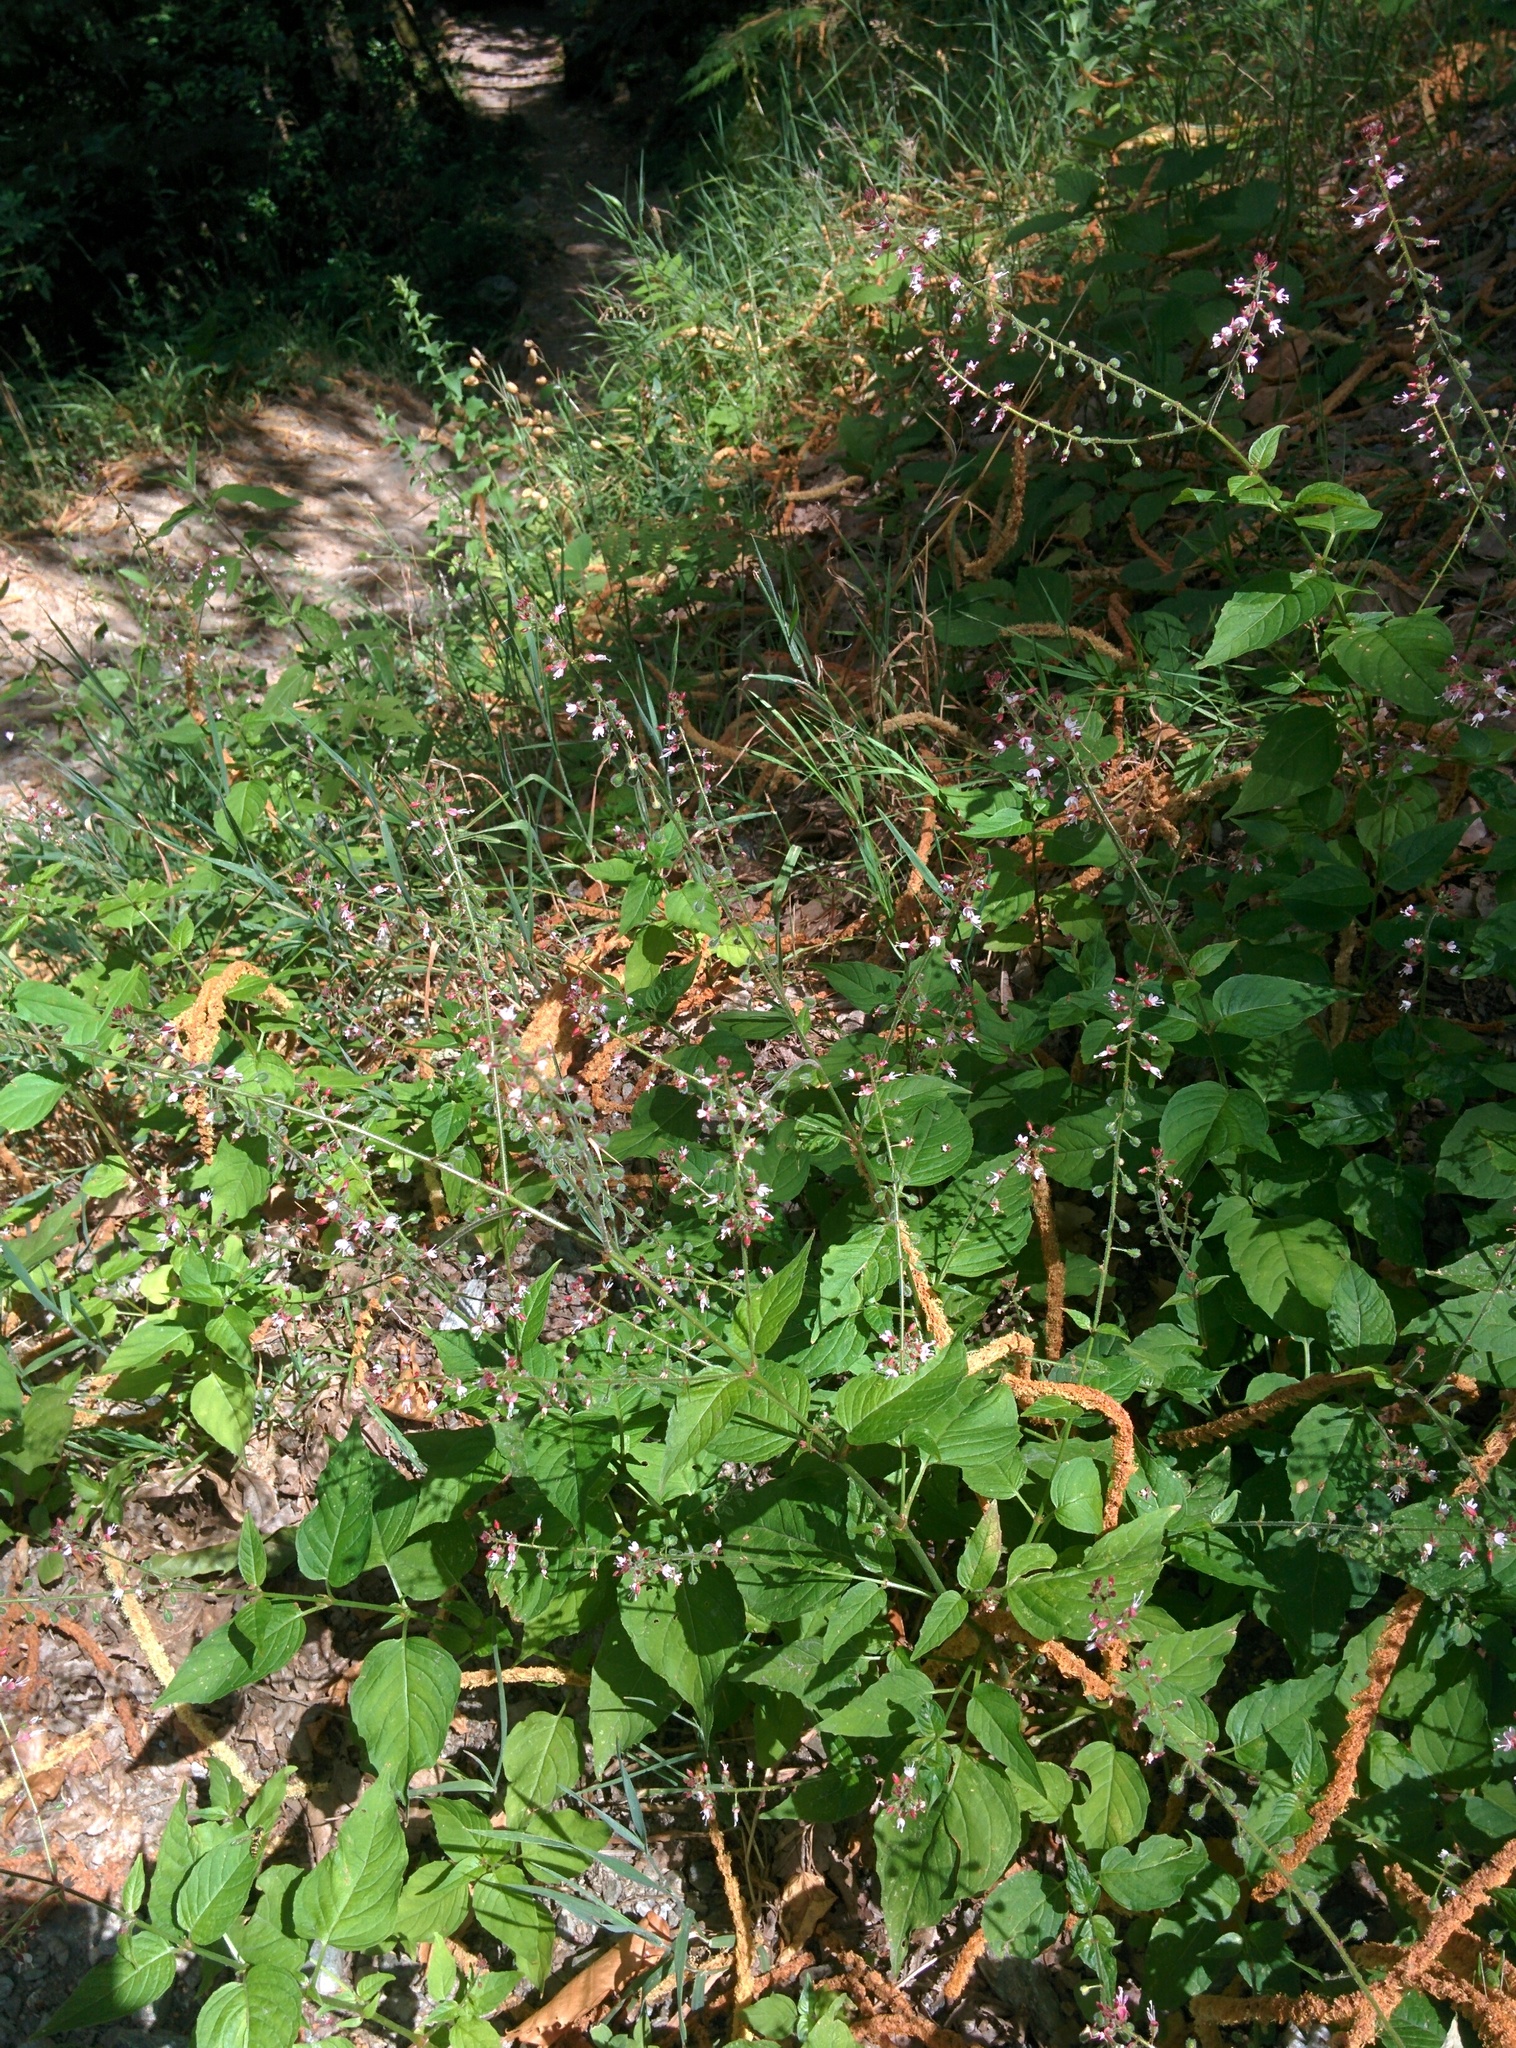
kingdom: Plantae
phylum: Tracheophyta
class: Magnoliopsida
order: Myrtales
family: Onagraceae
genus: Circaea
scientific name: Circaea lutetiana
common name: Enchanter's-nightshade
